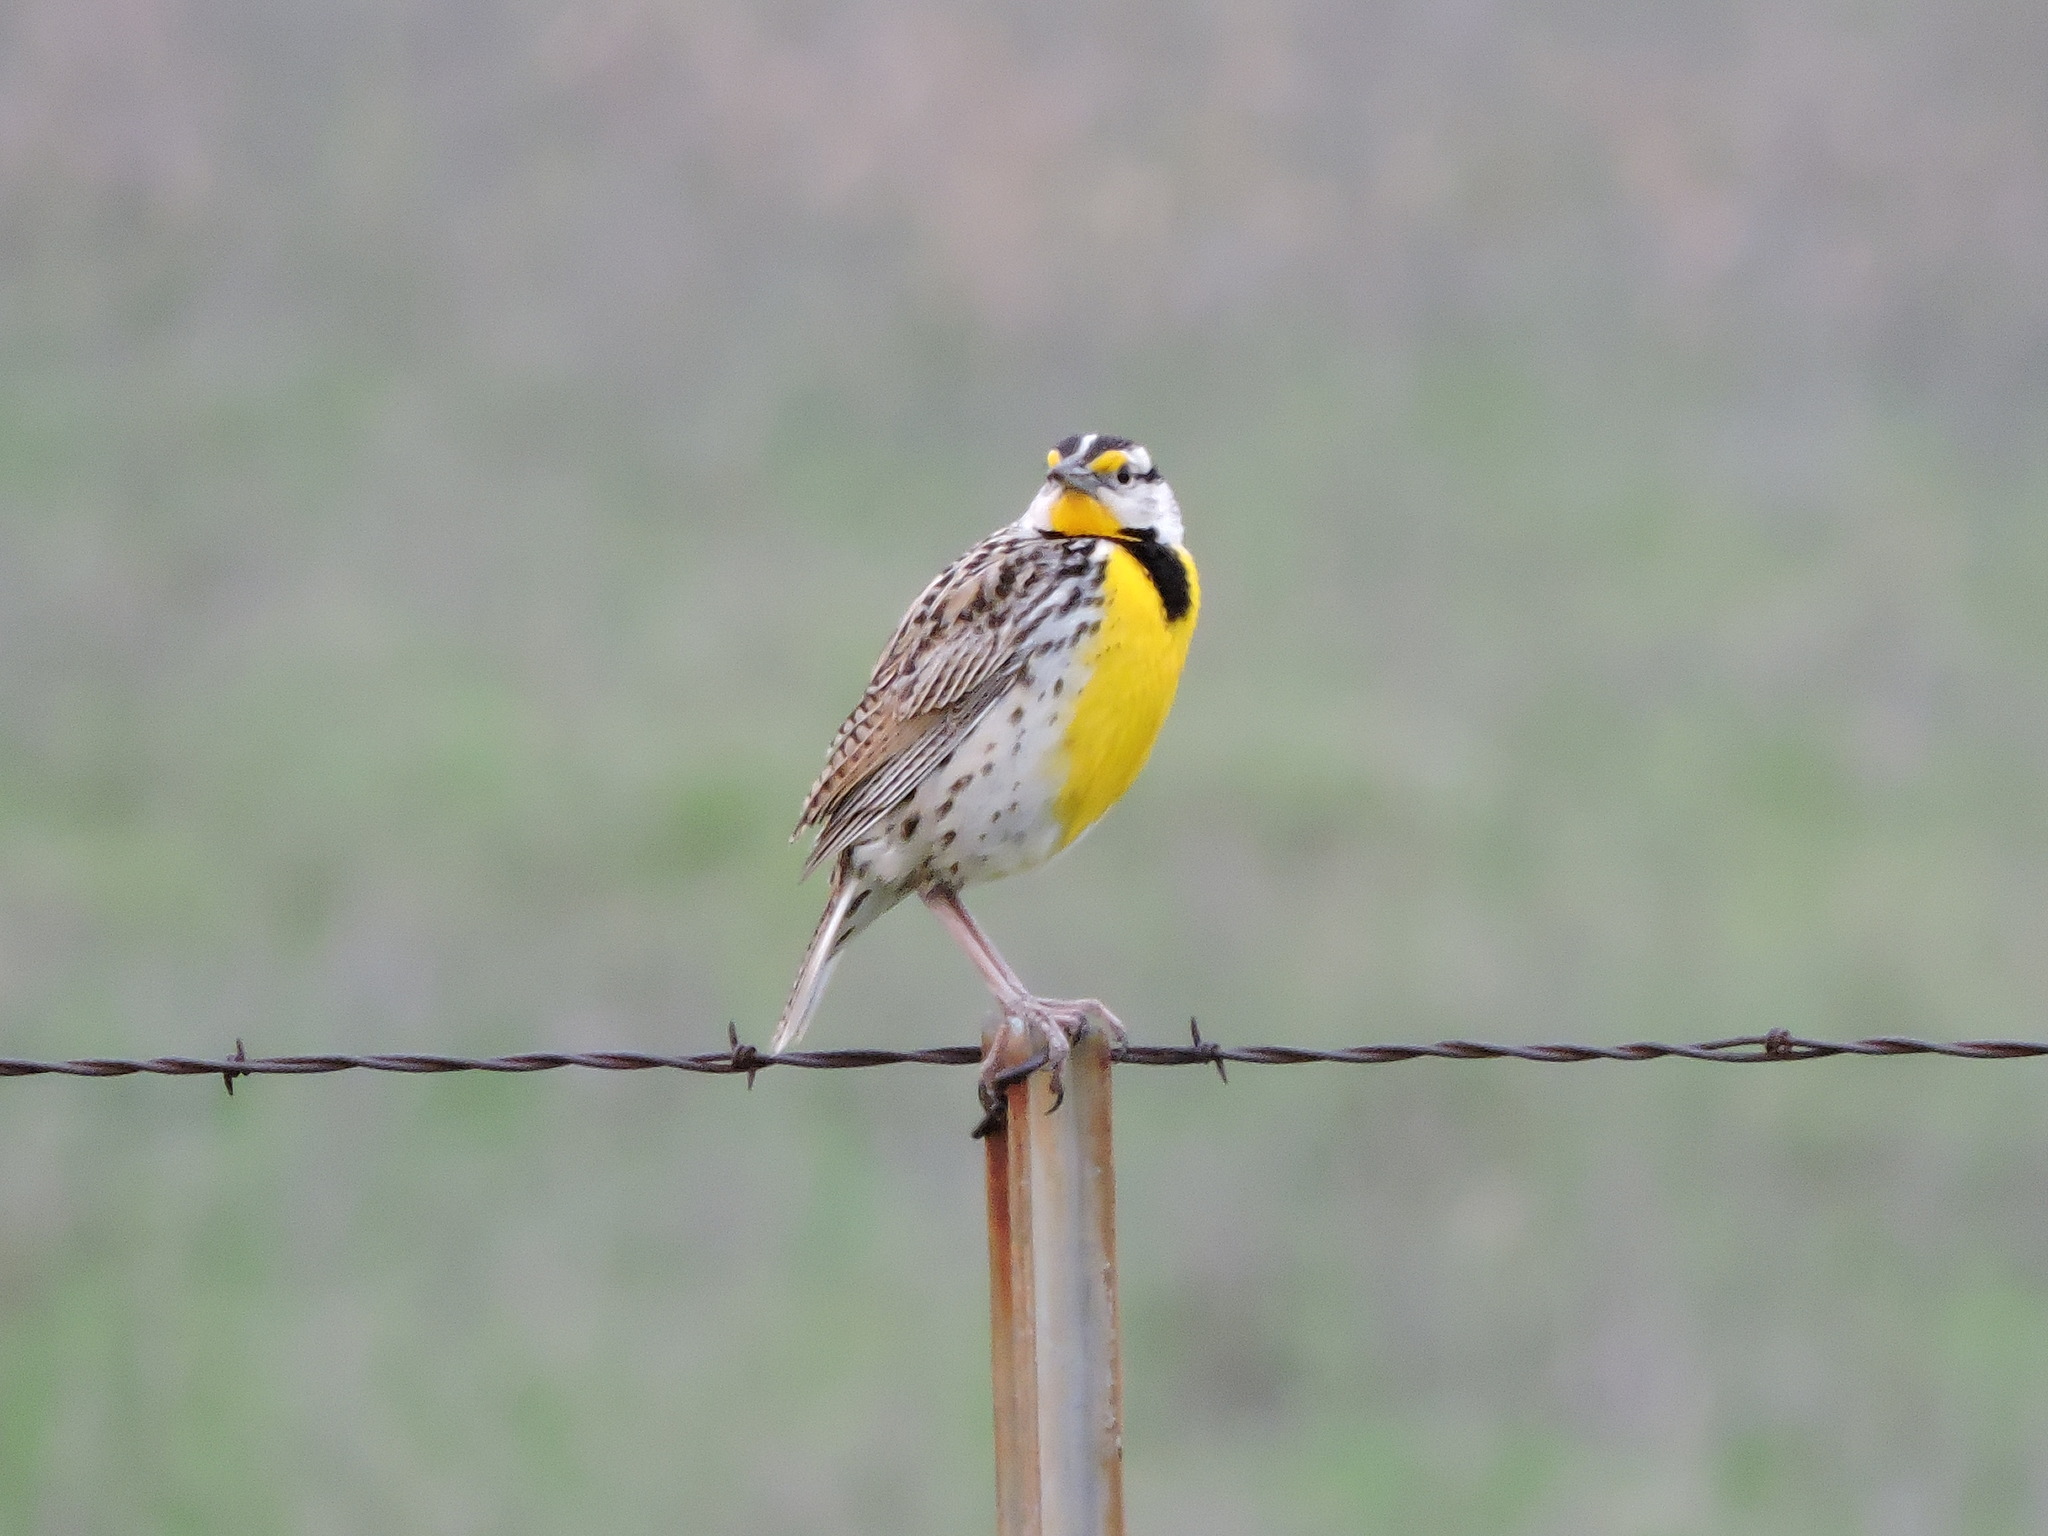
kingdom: Animalia
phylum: Chordata
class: Aves
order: Passeriformes
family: Icteridae
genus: Sturnella
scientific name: Sturnella magna
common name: Eastern meadowlark
